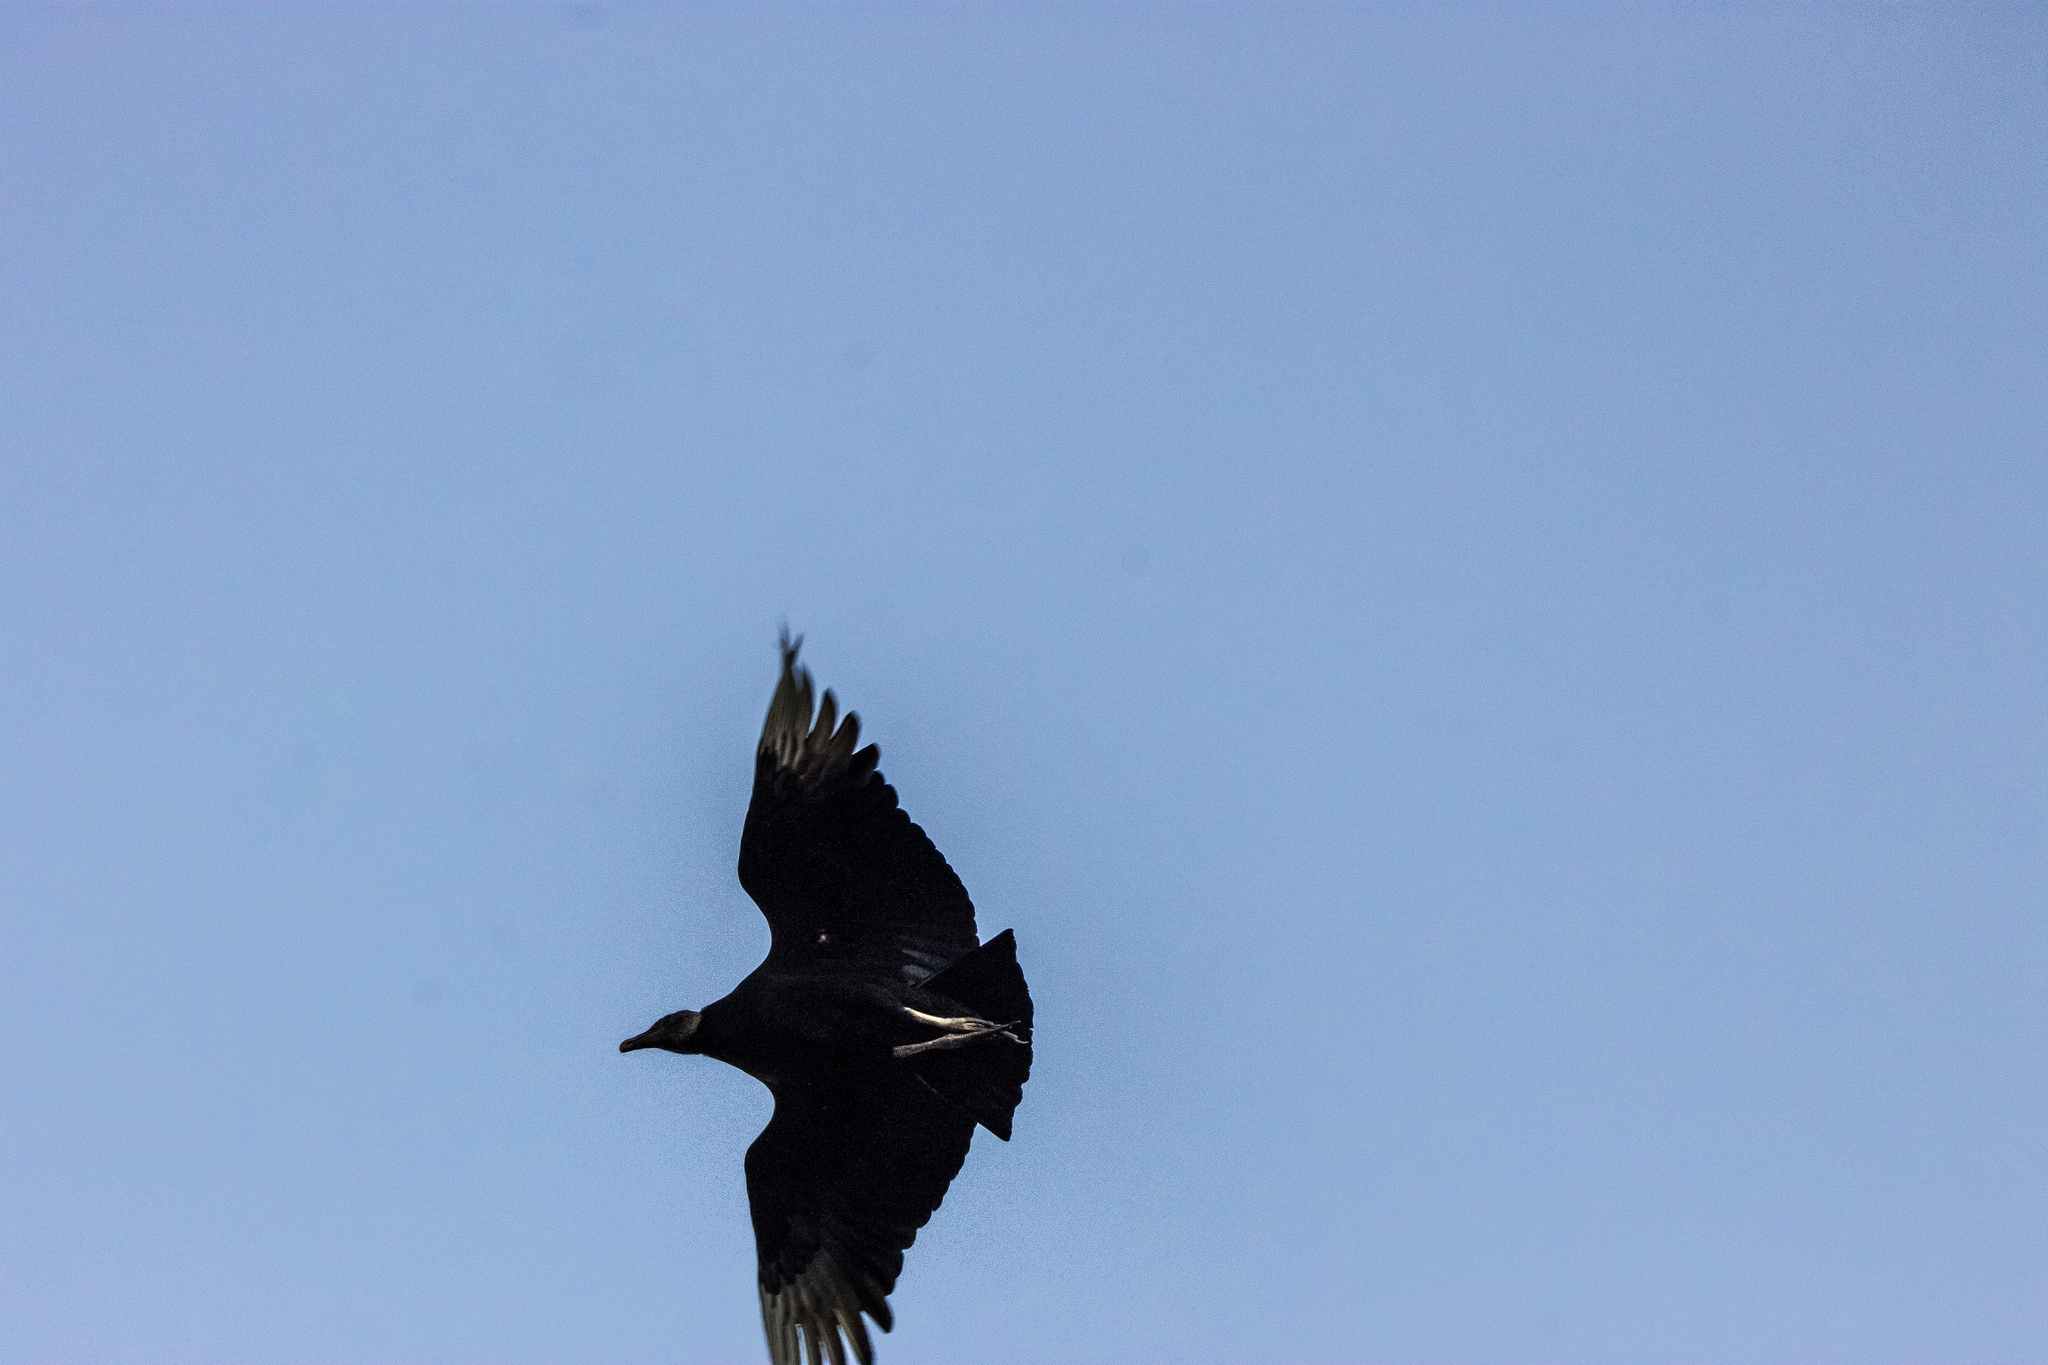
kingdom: Animalia
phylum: Chordata
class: Aves
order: Accipitriformes
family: Cathartidae
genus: Coragyps
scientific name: Coragyps atratus
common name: Black vulture
